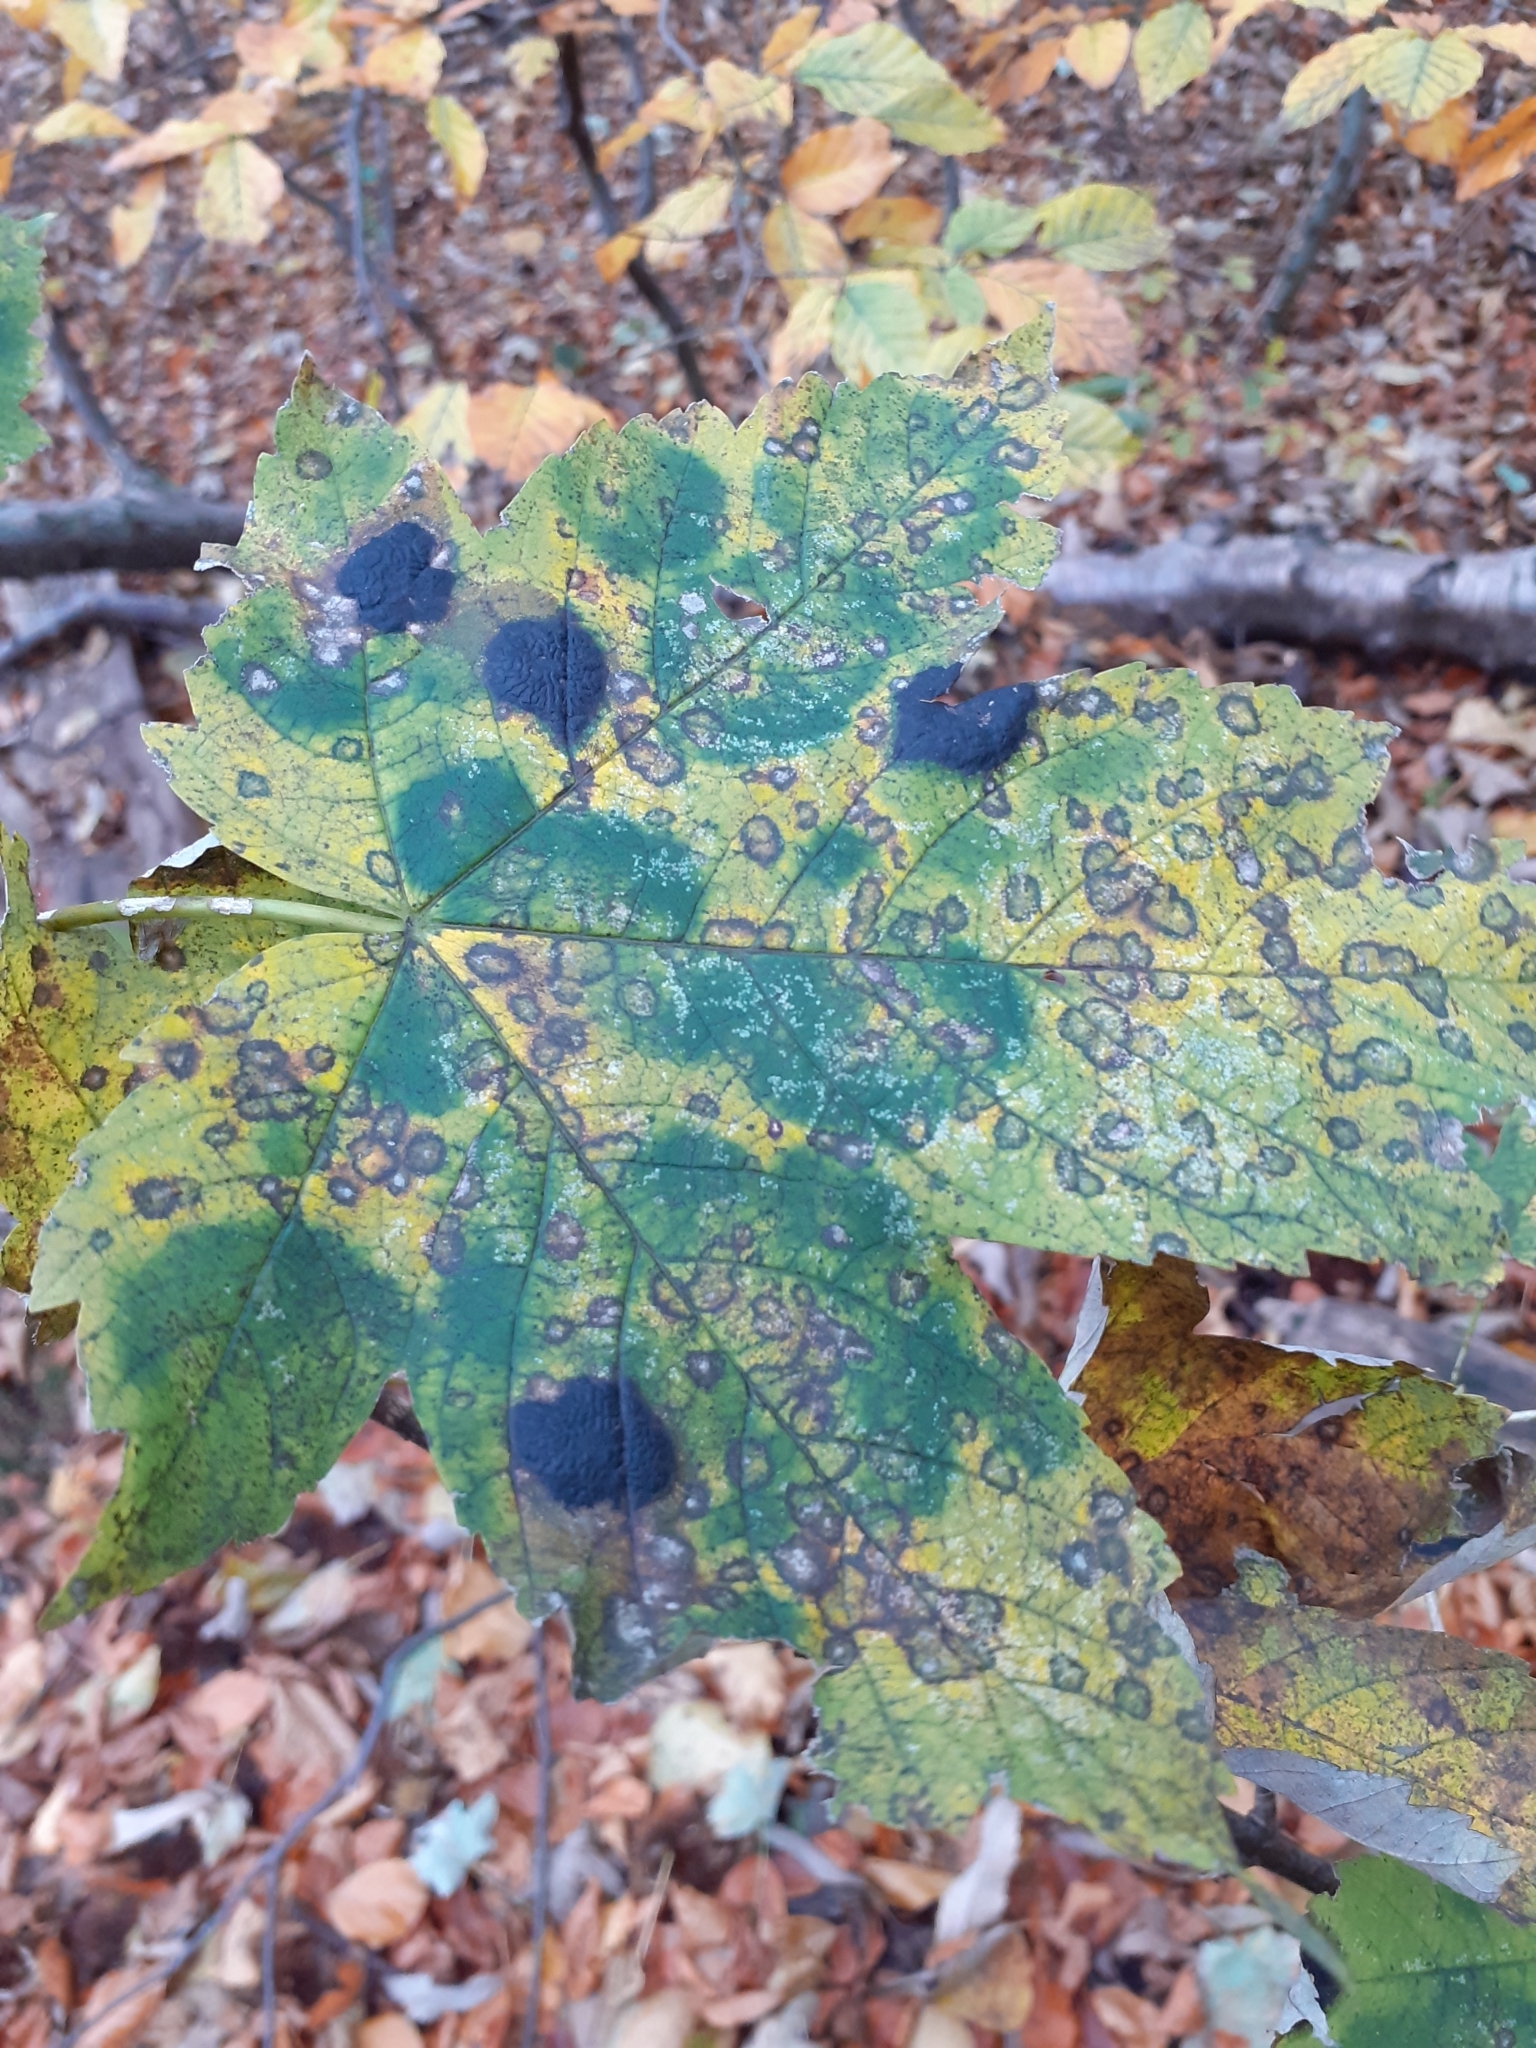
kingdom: Fungi
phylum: Ascomycota
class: Leotiomycetes
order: Rhytismatales
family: Rhytismataceae
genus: Rhytisma
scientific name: Rhytisma acerinum
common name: European tar spot
